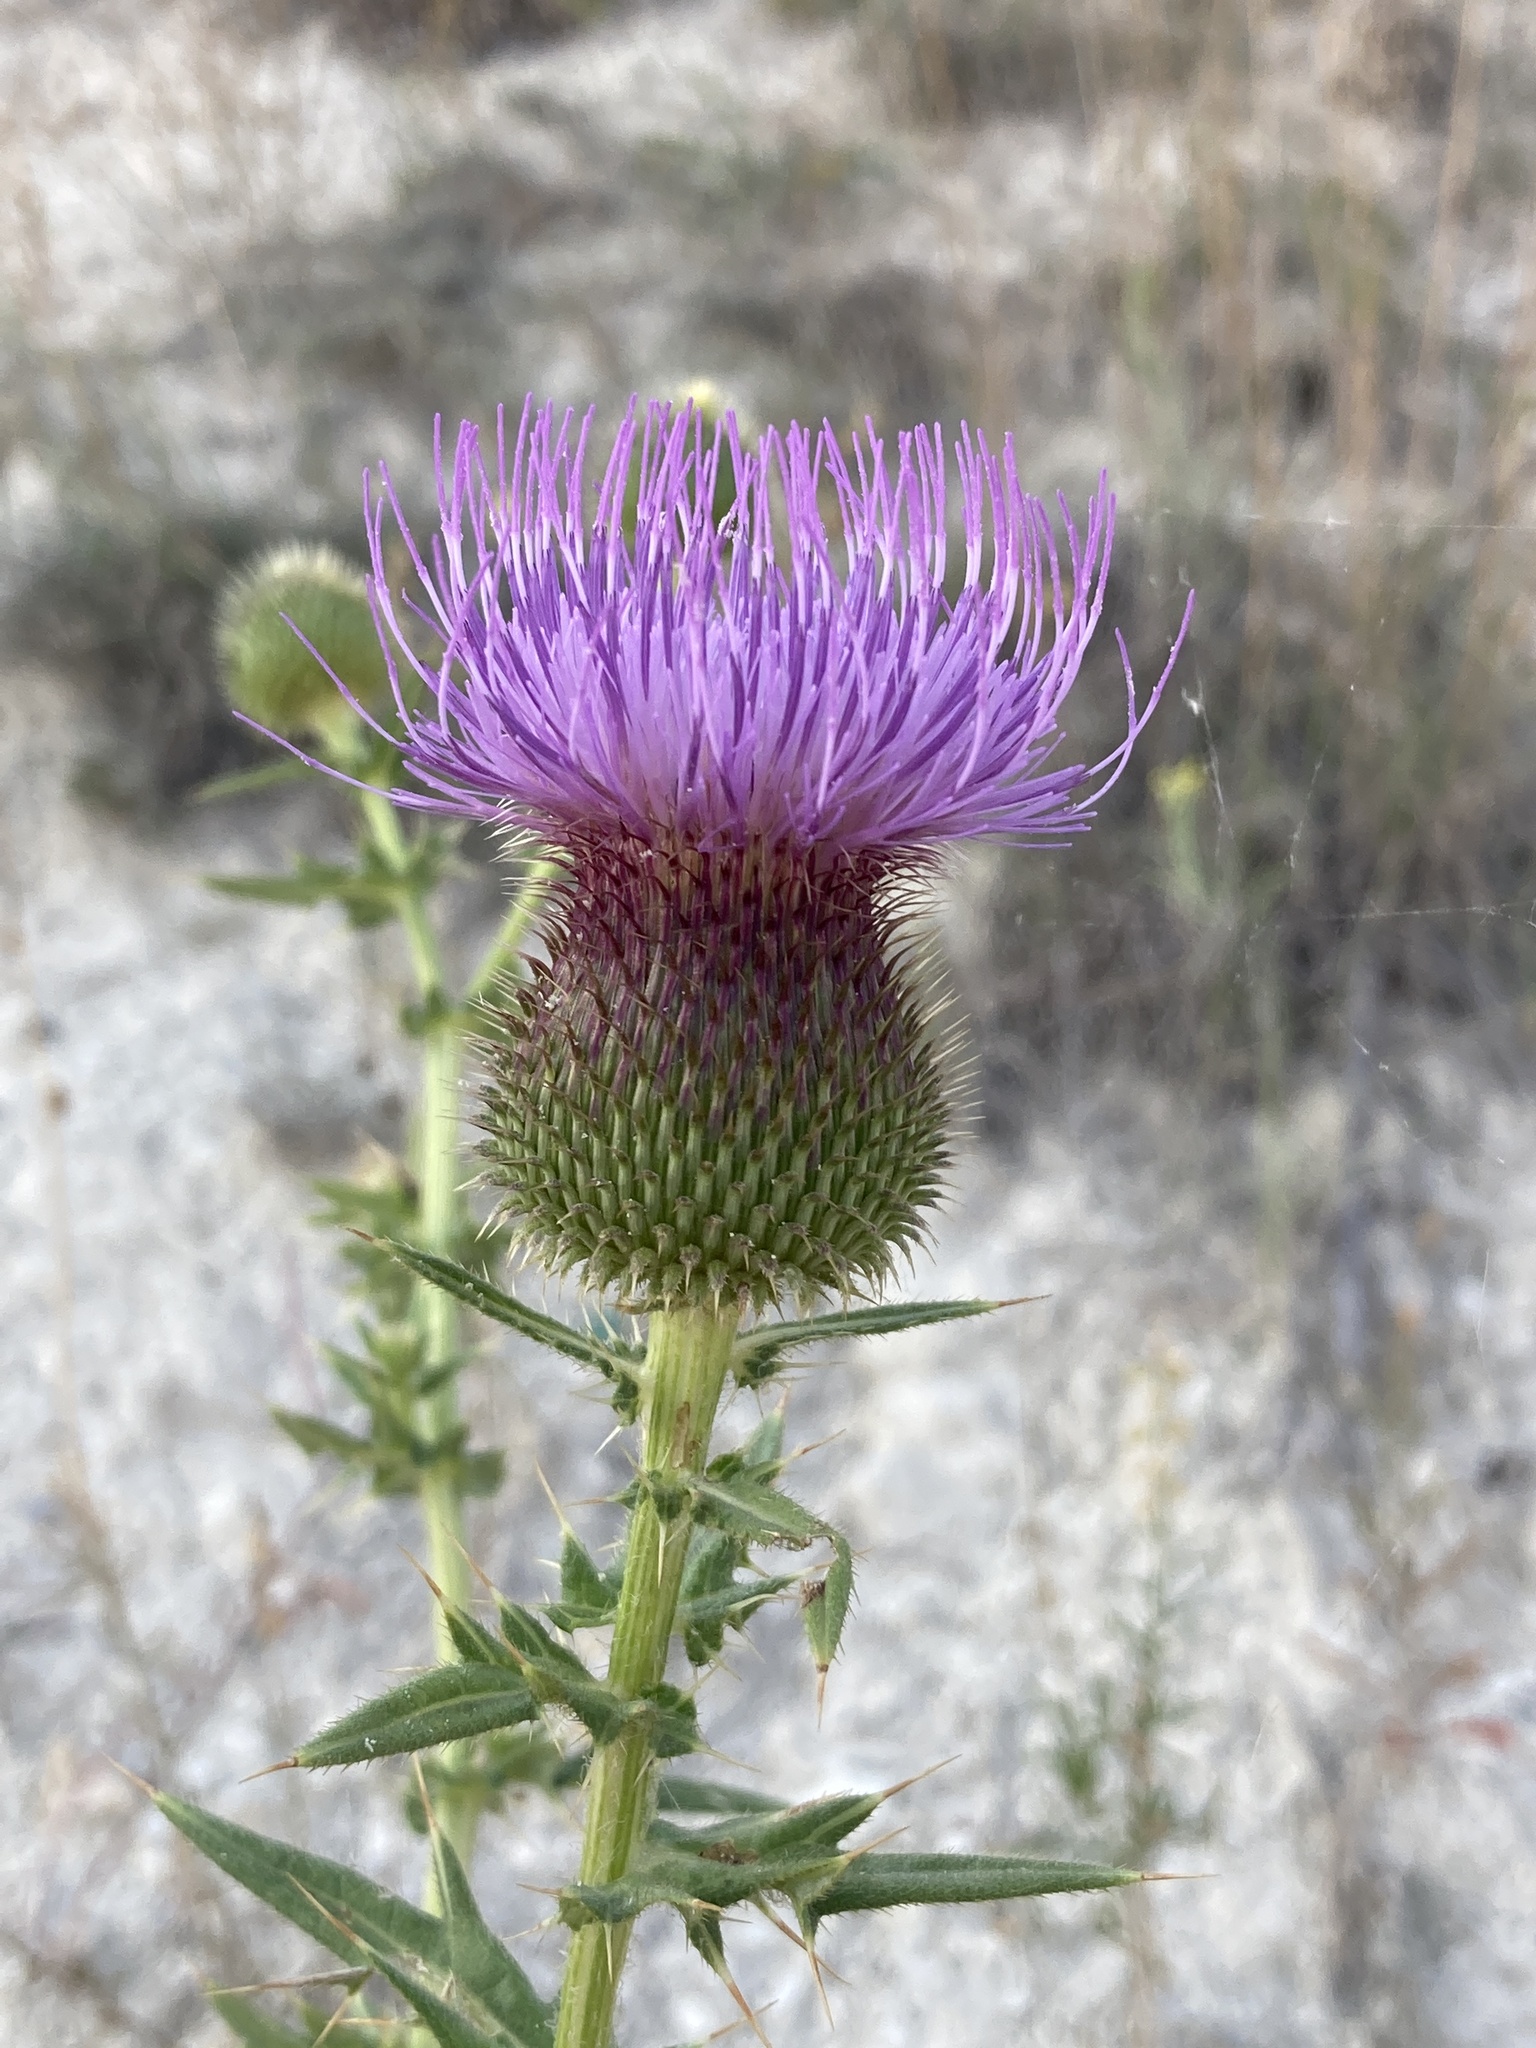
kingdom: Plantae
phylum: Tracheophyta
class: Magnoliopsida
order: Asterales
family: Asteraceae
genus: Cirsium
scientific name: Cirsium serrulatum
